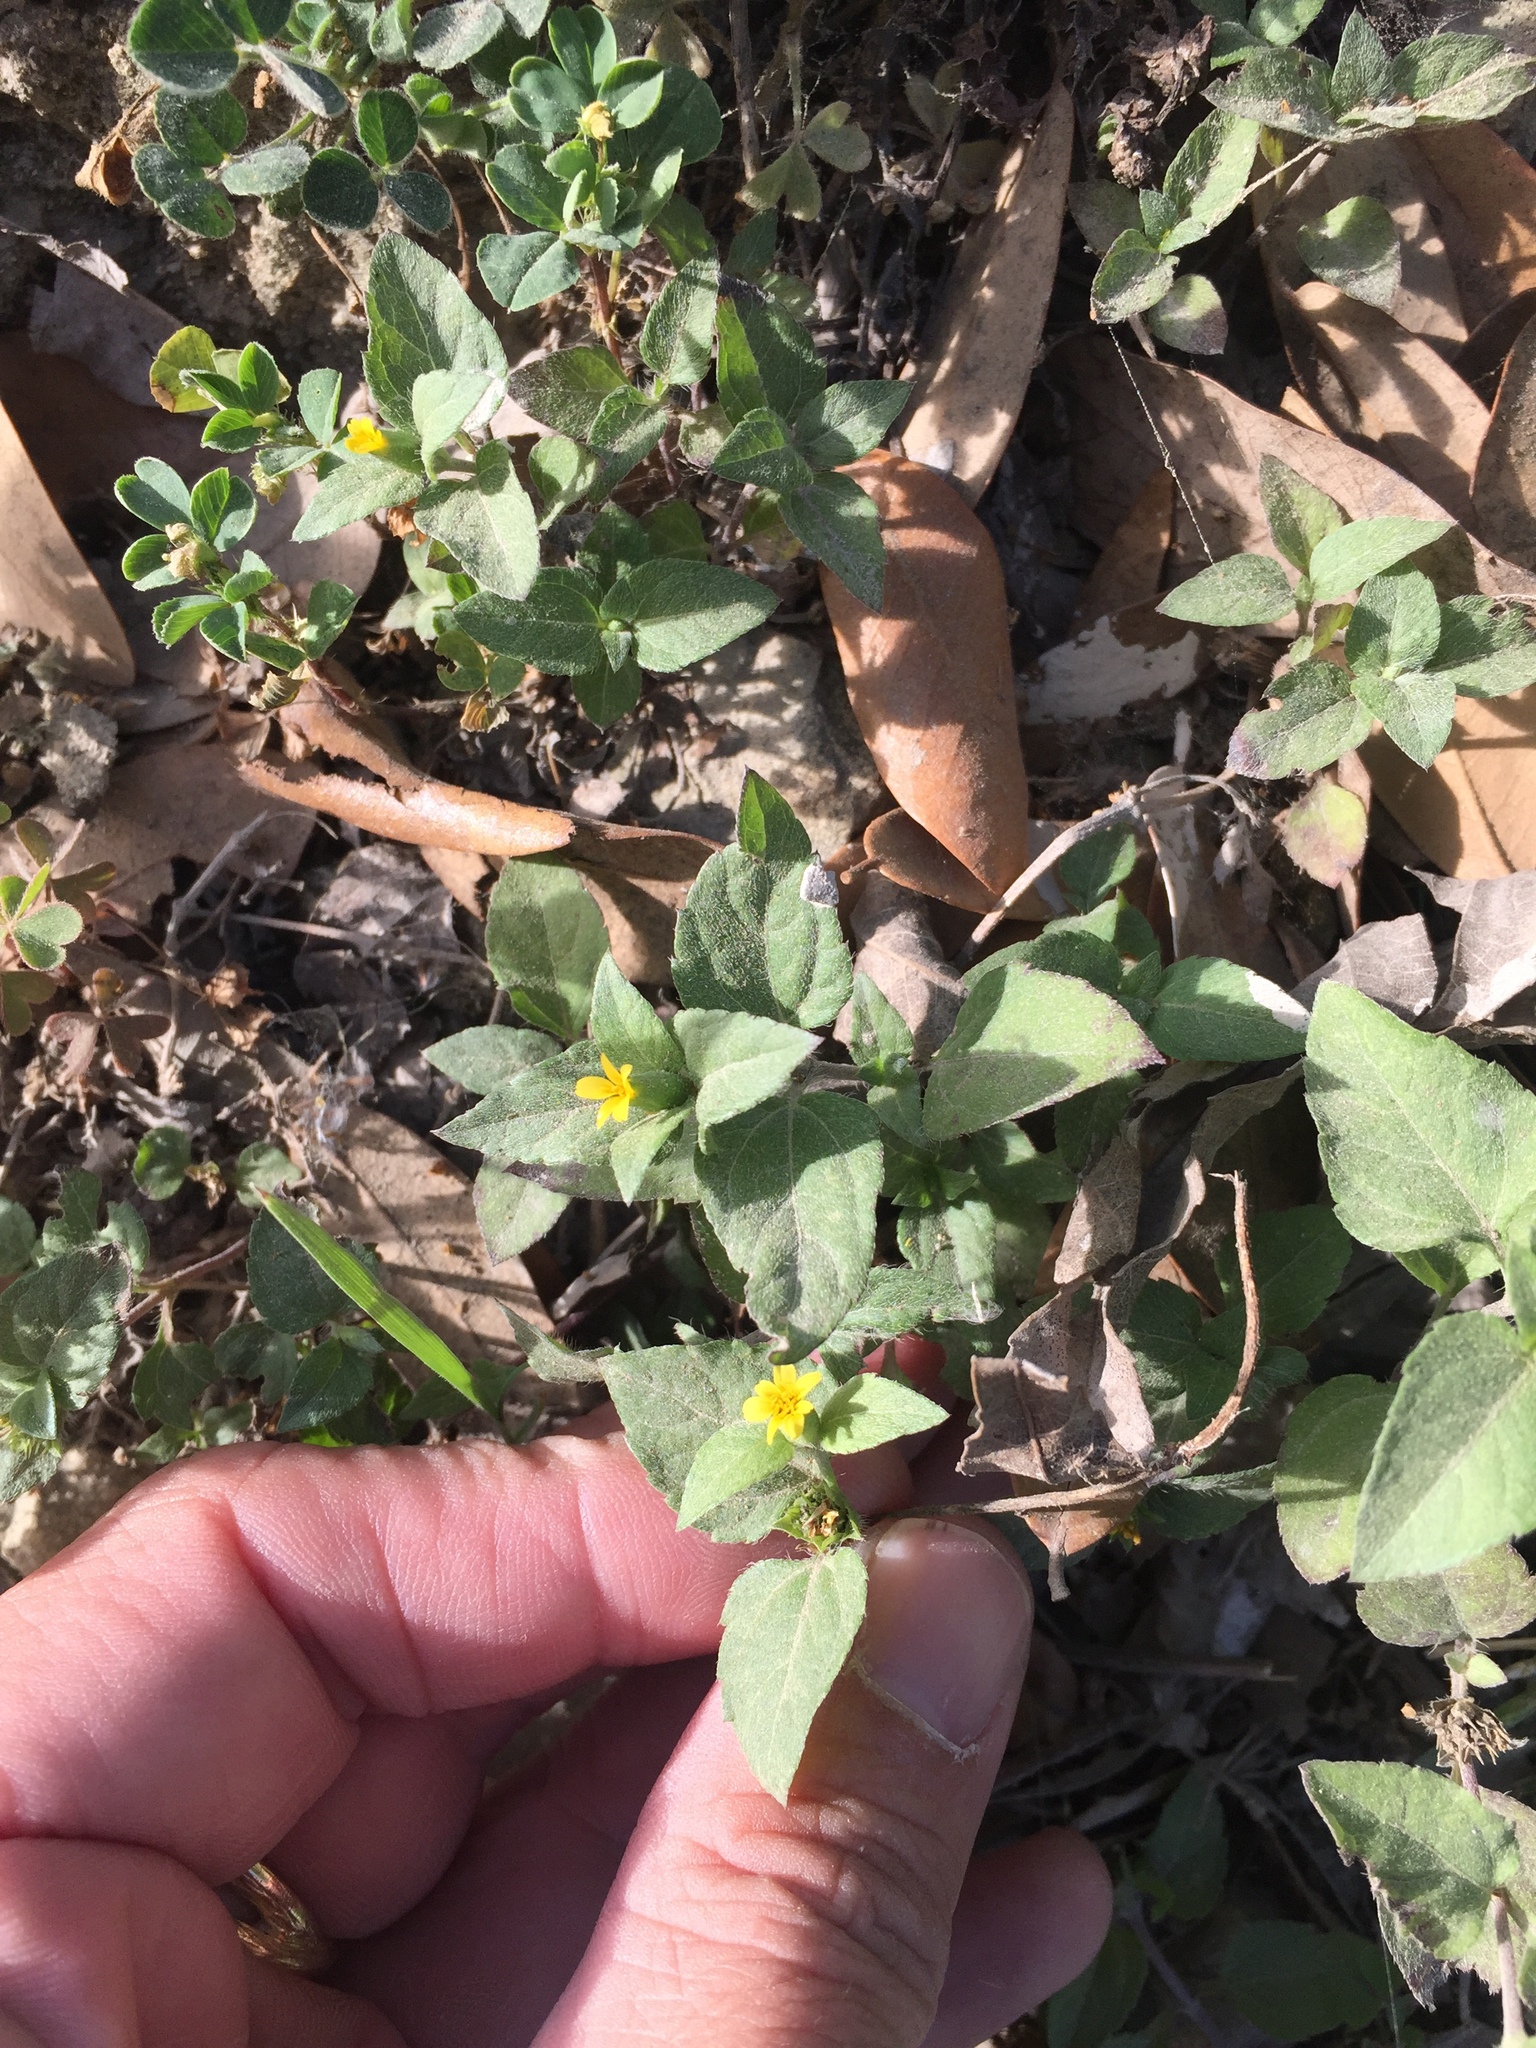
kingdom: Plantae
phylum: Tracheophyta
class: Magnoliopsida
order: Asterales
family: Asteraceae
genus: Calyptocarpus
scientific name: Calyptocarpus vialis
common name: Straggler daisy
